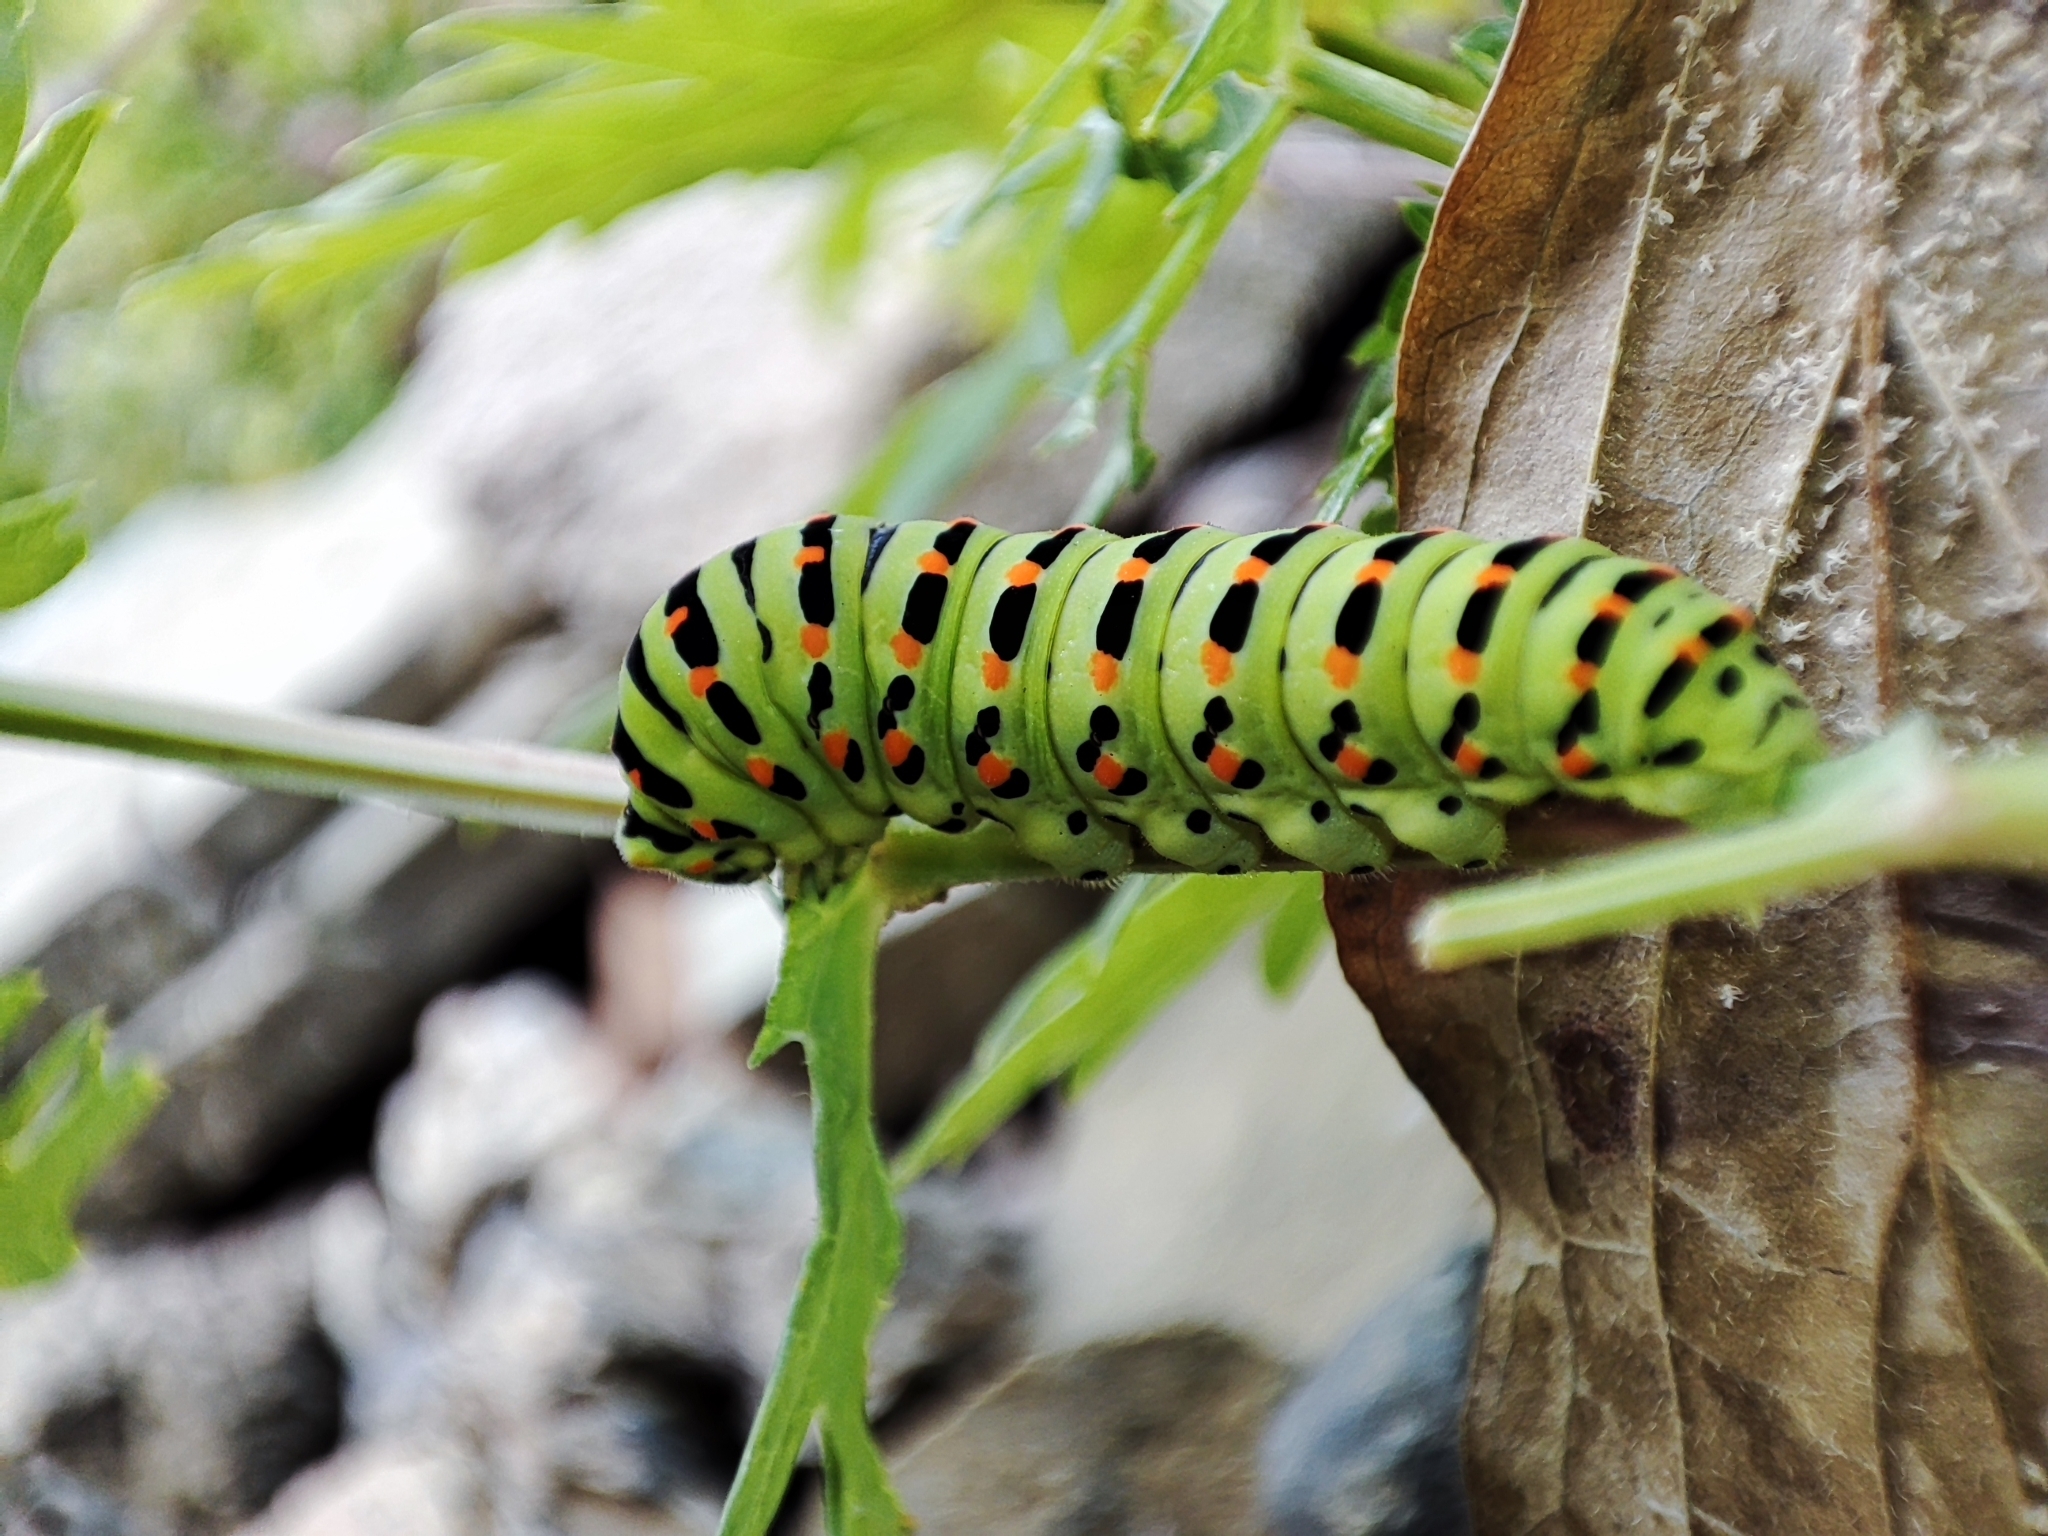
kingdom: Animalia
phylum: Arthropoda
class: Insecta
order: Lepidoptera
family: Papilionidae
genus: Papilio
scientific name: Papilio machaon
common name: Swallowtail
